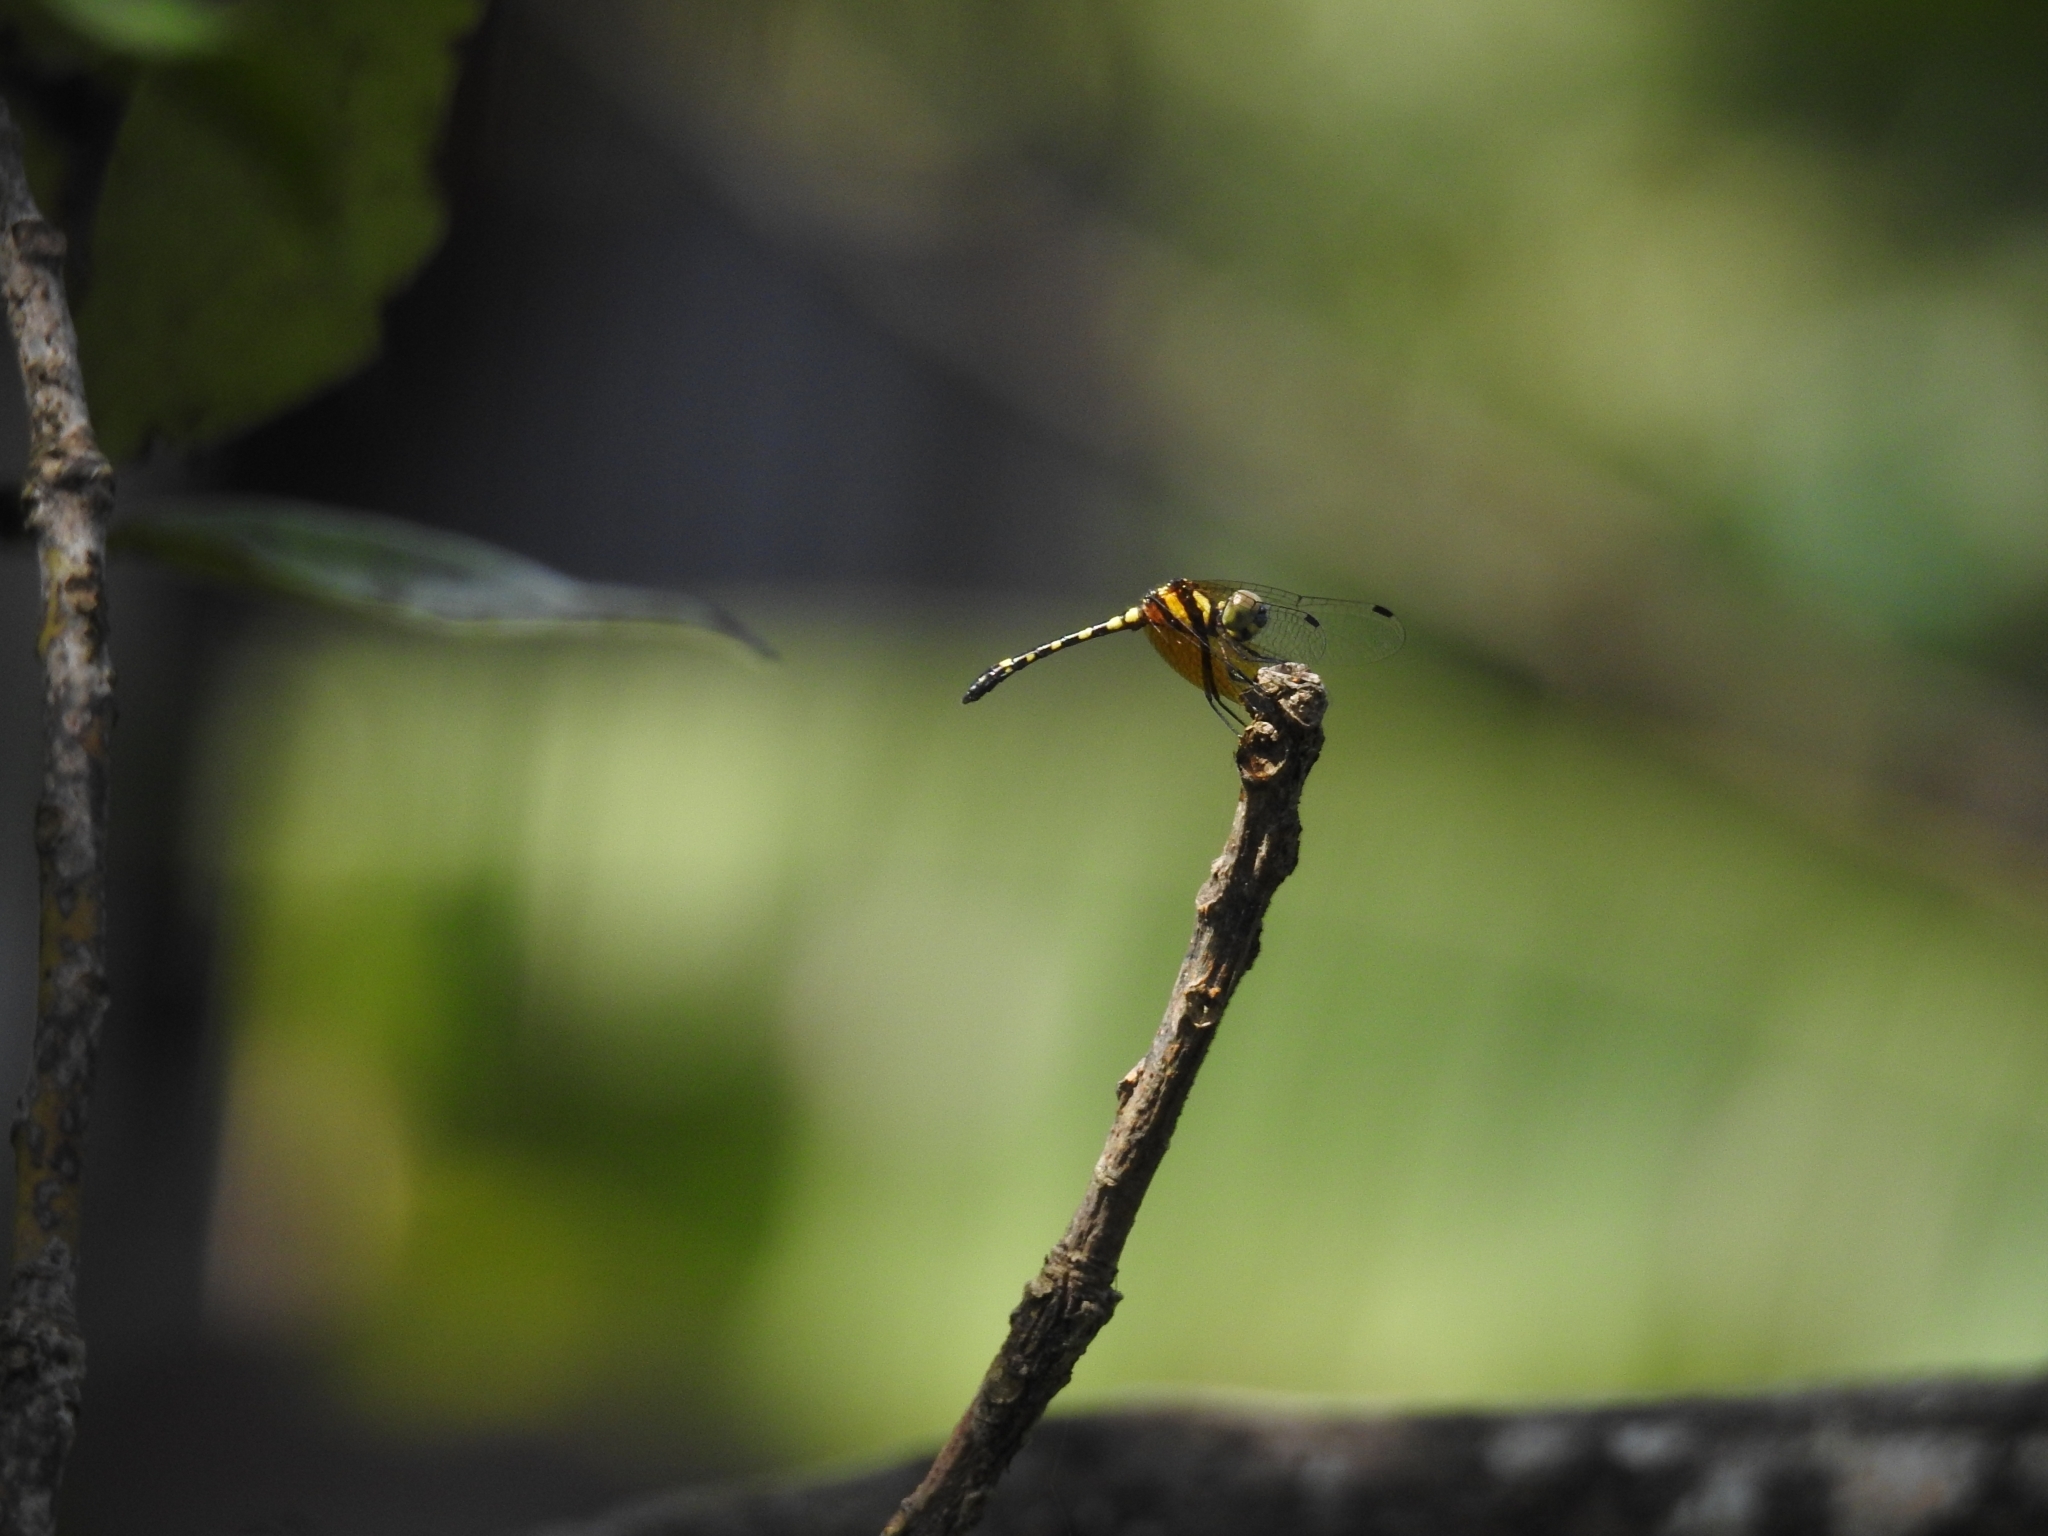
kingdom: Animalia
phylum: Arthropoda
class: Insecta
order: Odonata
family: Libellulidae
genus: Tetrathemis
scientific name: Tetrathemis platyptera
